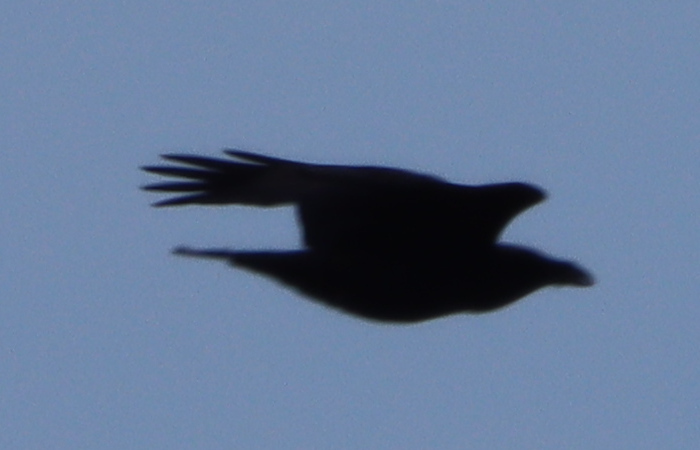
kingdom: Animalia
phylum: Chordata
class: Aves
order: Passeriformes
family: Corvidae
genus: Corvus
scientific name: Corvus corax
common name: Common raven
